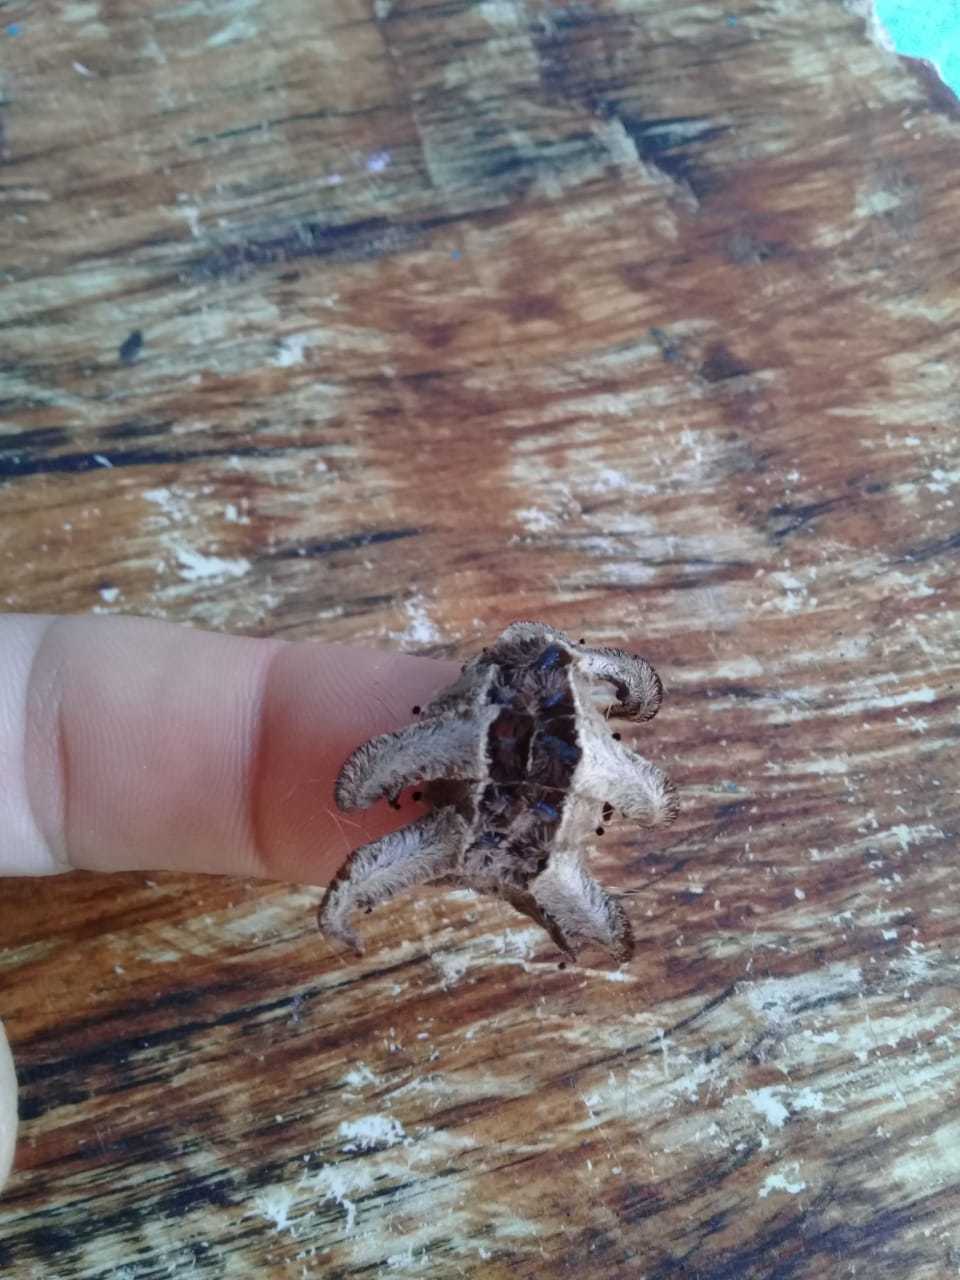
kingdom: Animalia
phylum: Arthropoda
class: Insecta
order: Lepidoptera
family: Limacodidae
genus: Phobetron
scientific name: Phobetron hipparchia
